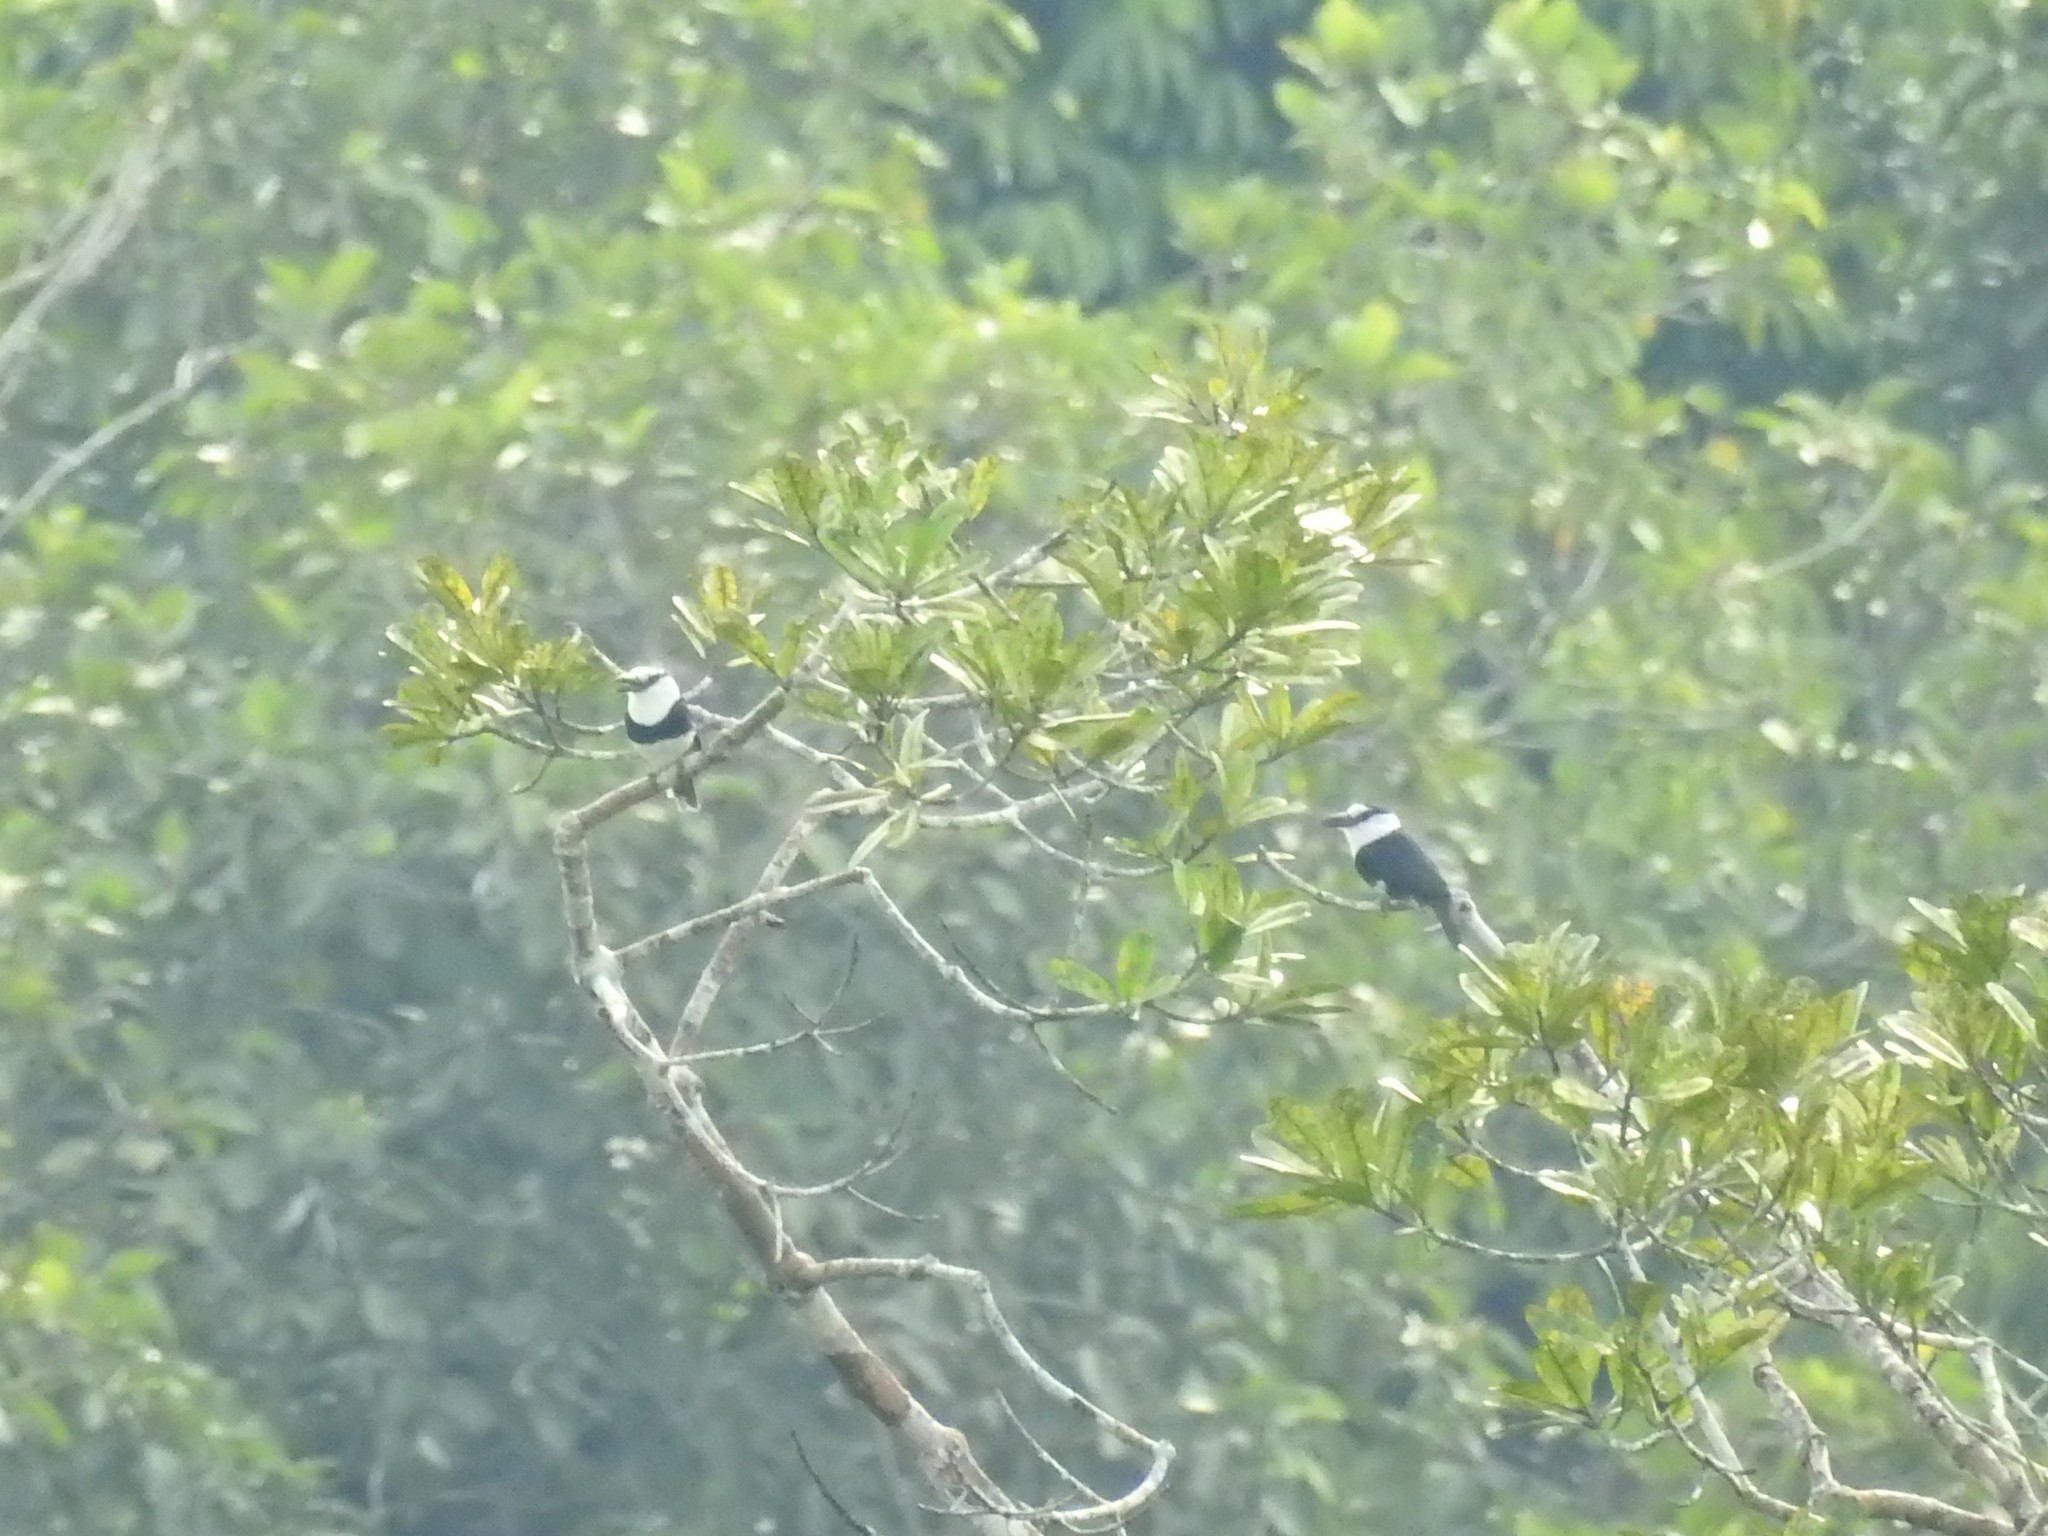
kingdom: Animalia
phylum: Chordata
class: Aves
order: Piciformes
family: Bucconidae
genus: Notharchus
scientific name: Notharchus hyperrhynchus
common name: White-necked puffbird
